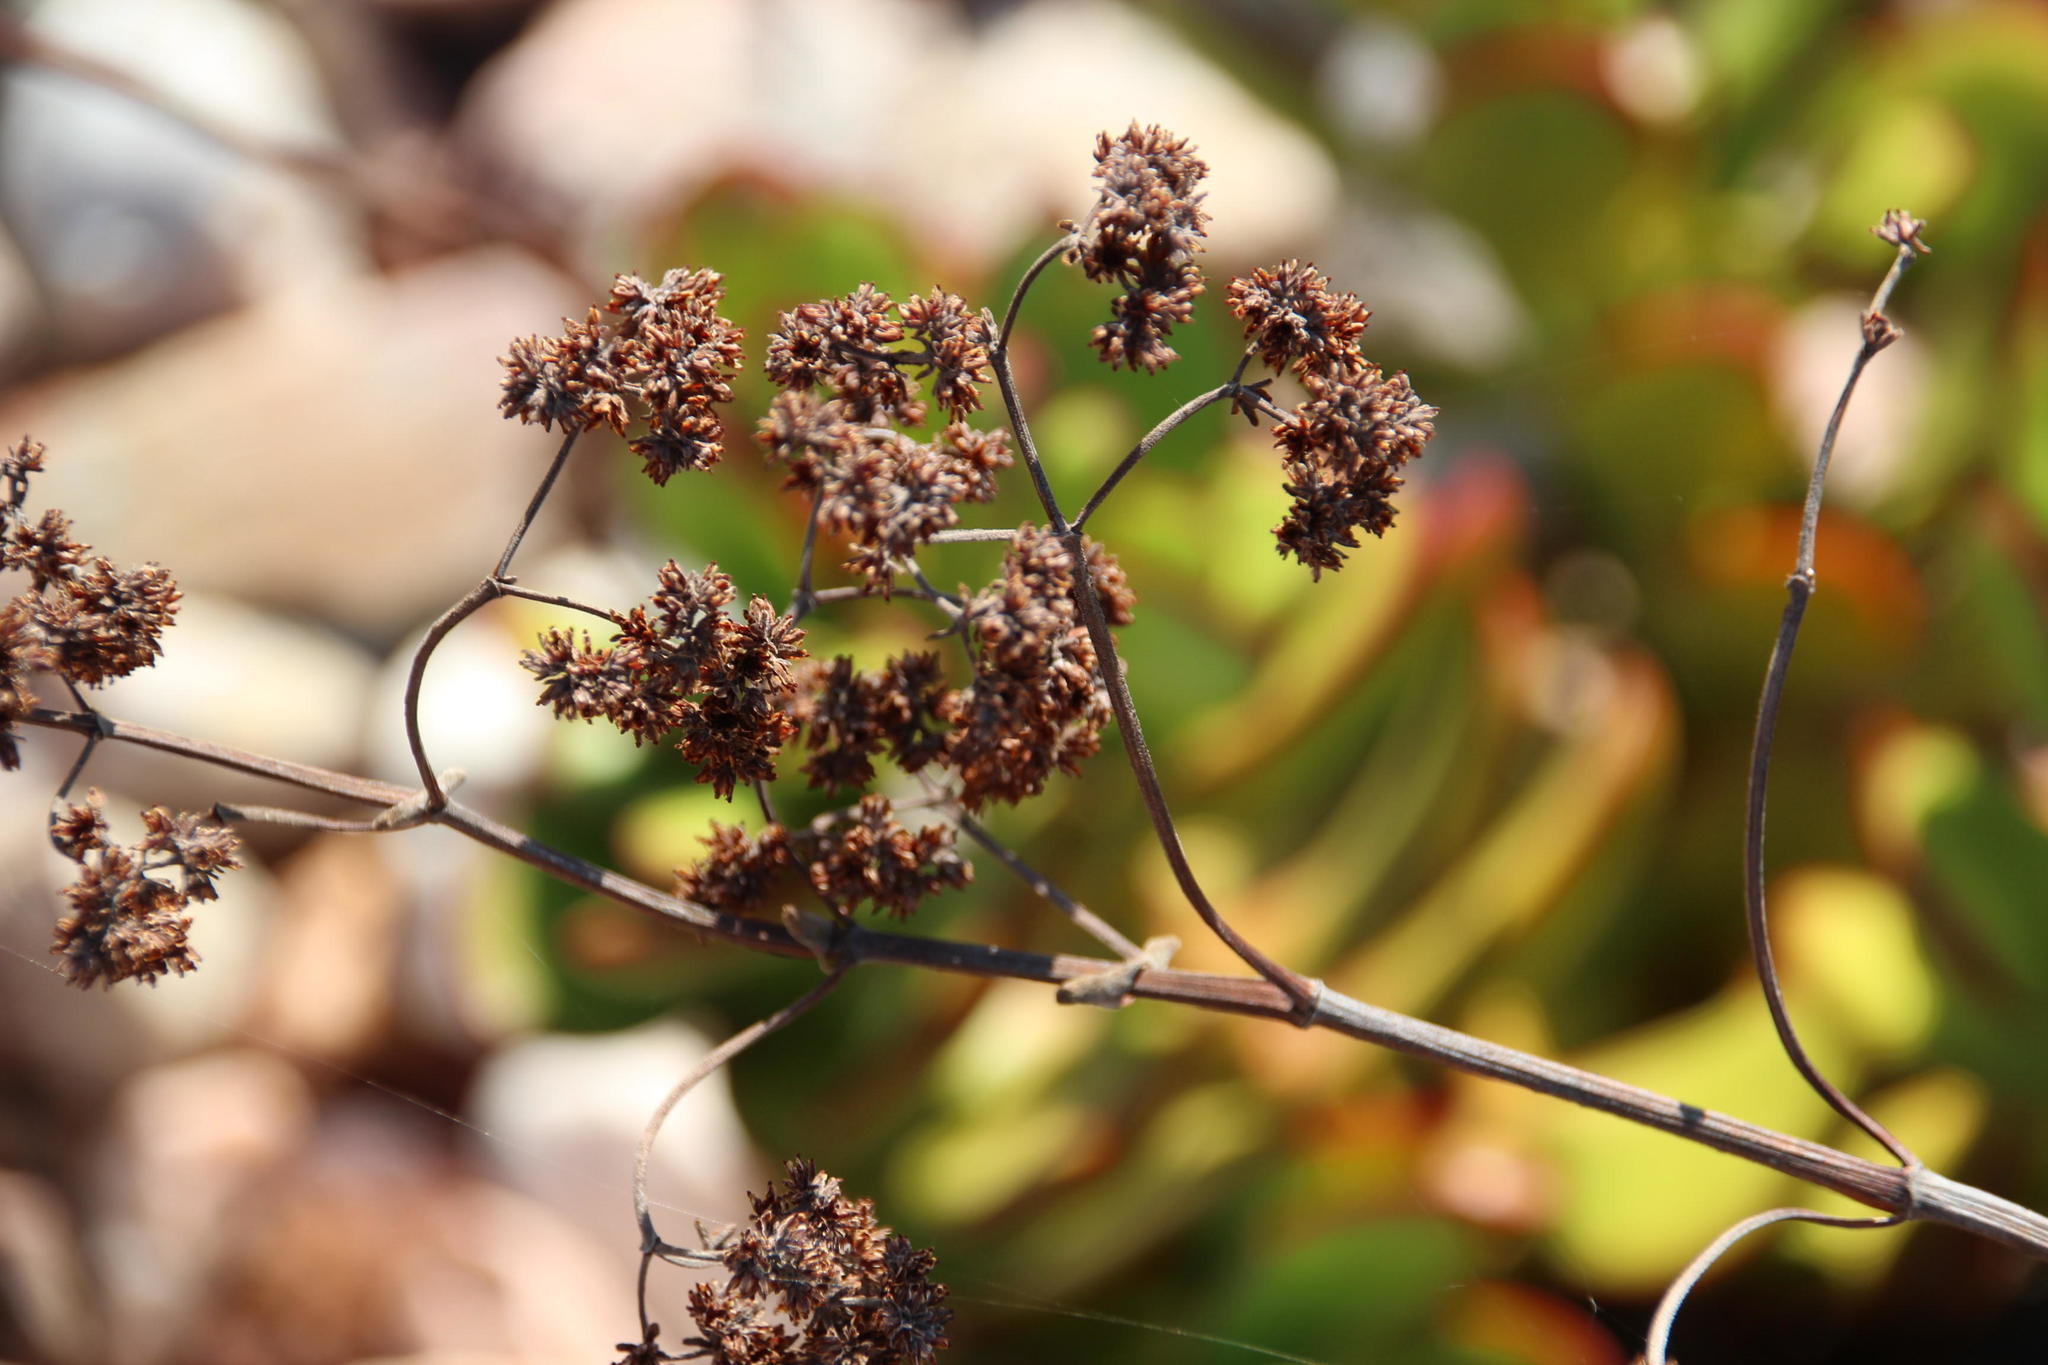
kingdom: Plantae
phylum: Tracheophyta
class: Magnoliopsida
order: Saxifragales
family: Crassulaceae
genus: Crassula
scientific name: Crassula cultrata
